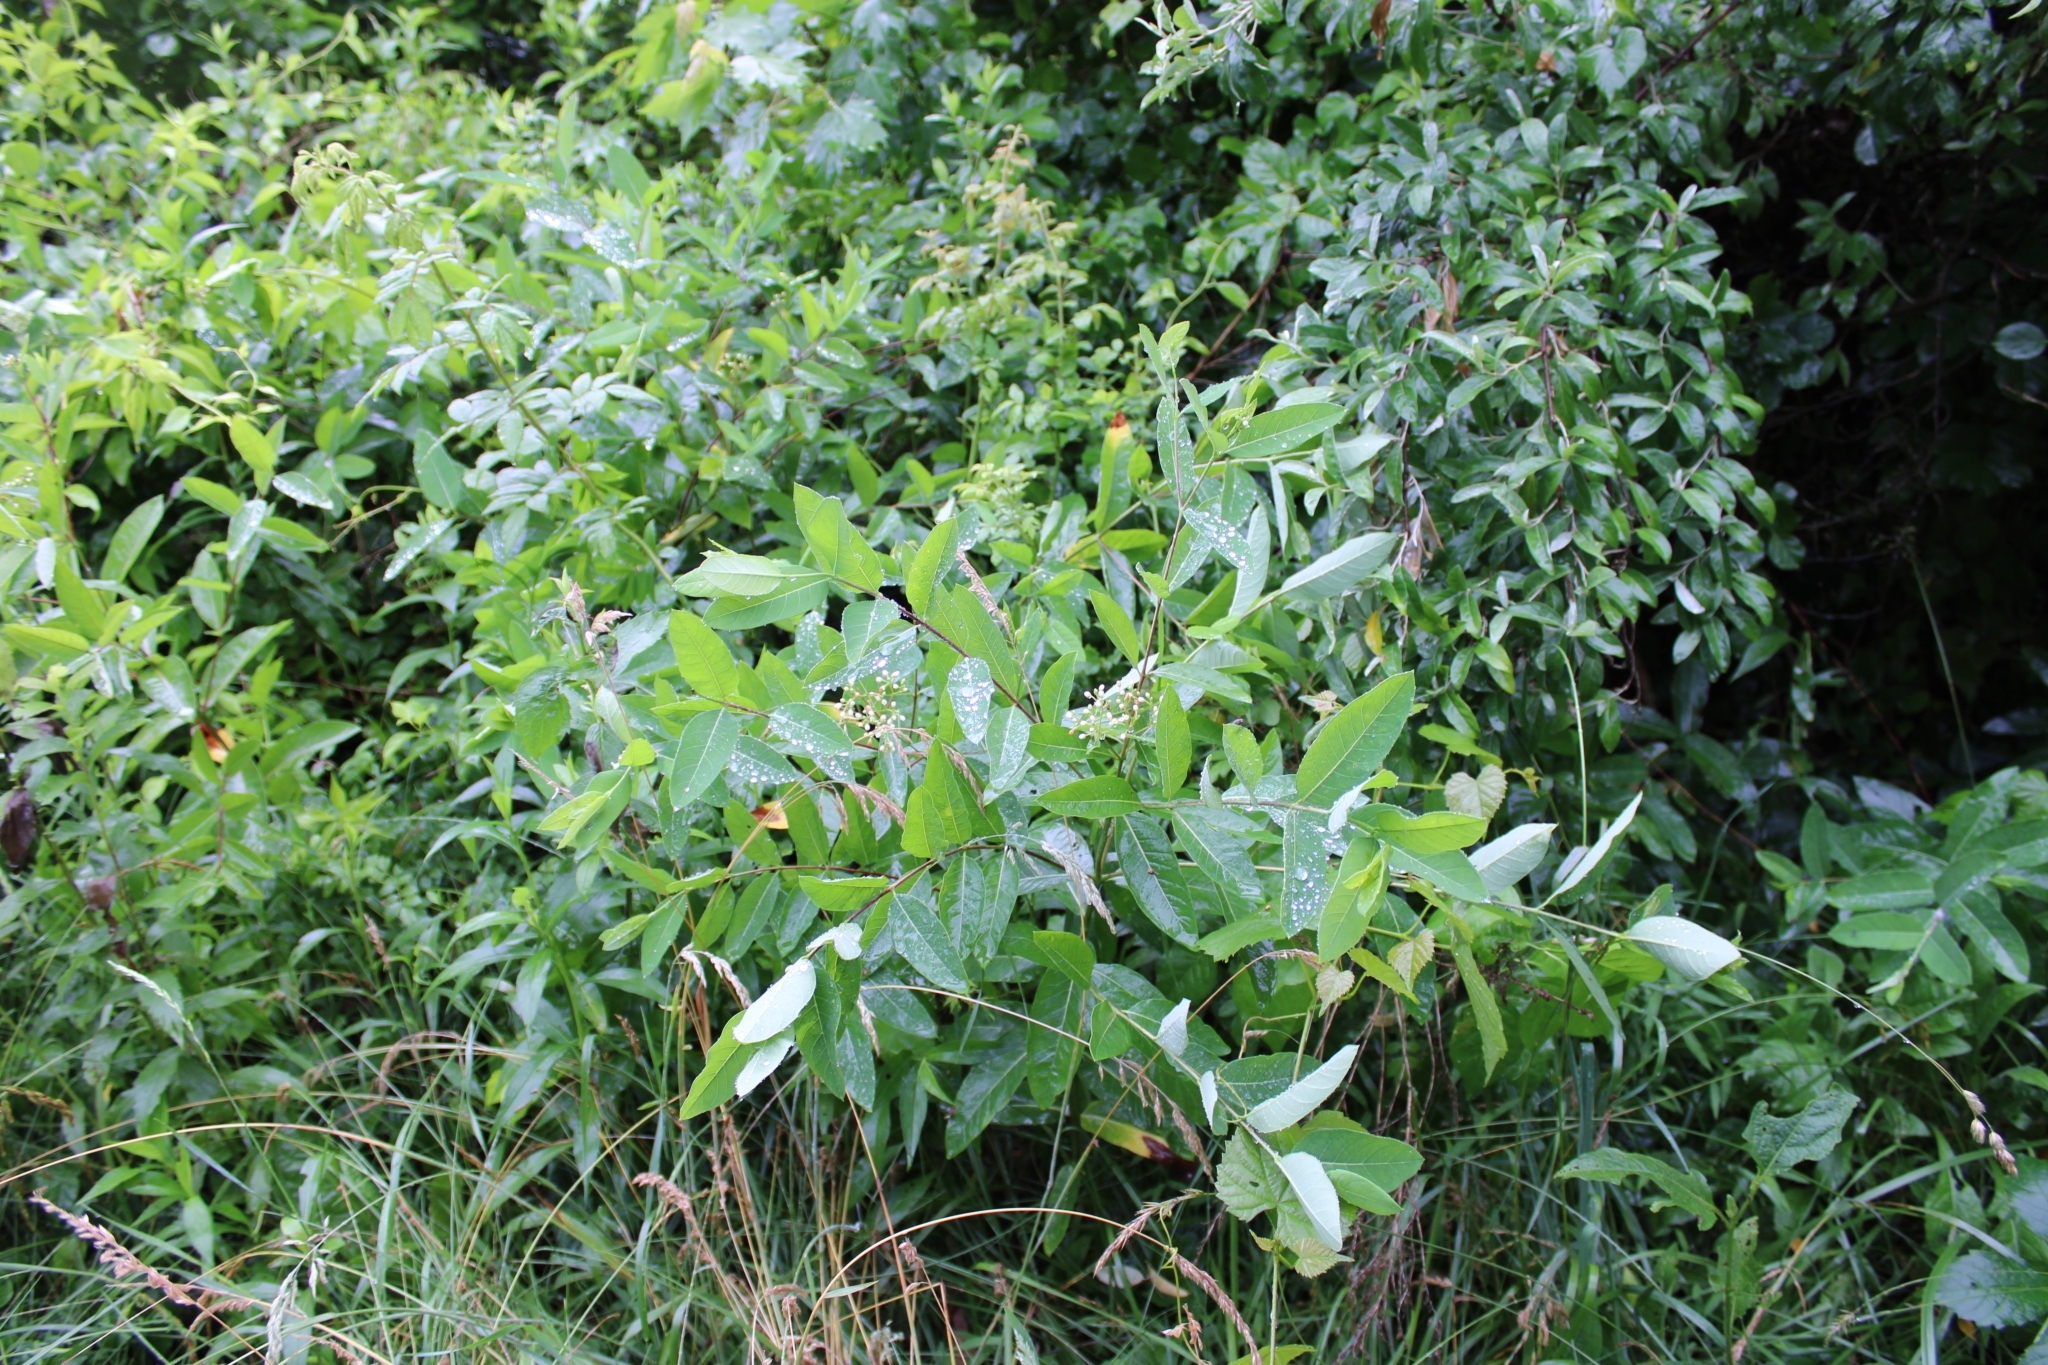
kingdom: Plantae
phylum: Tracheophyta
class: Magnoliopsida
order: Gentianales
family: Apocynaceae
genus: Apocynum
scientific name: Apocynum cannabinum
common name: Hemp dogbane
